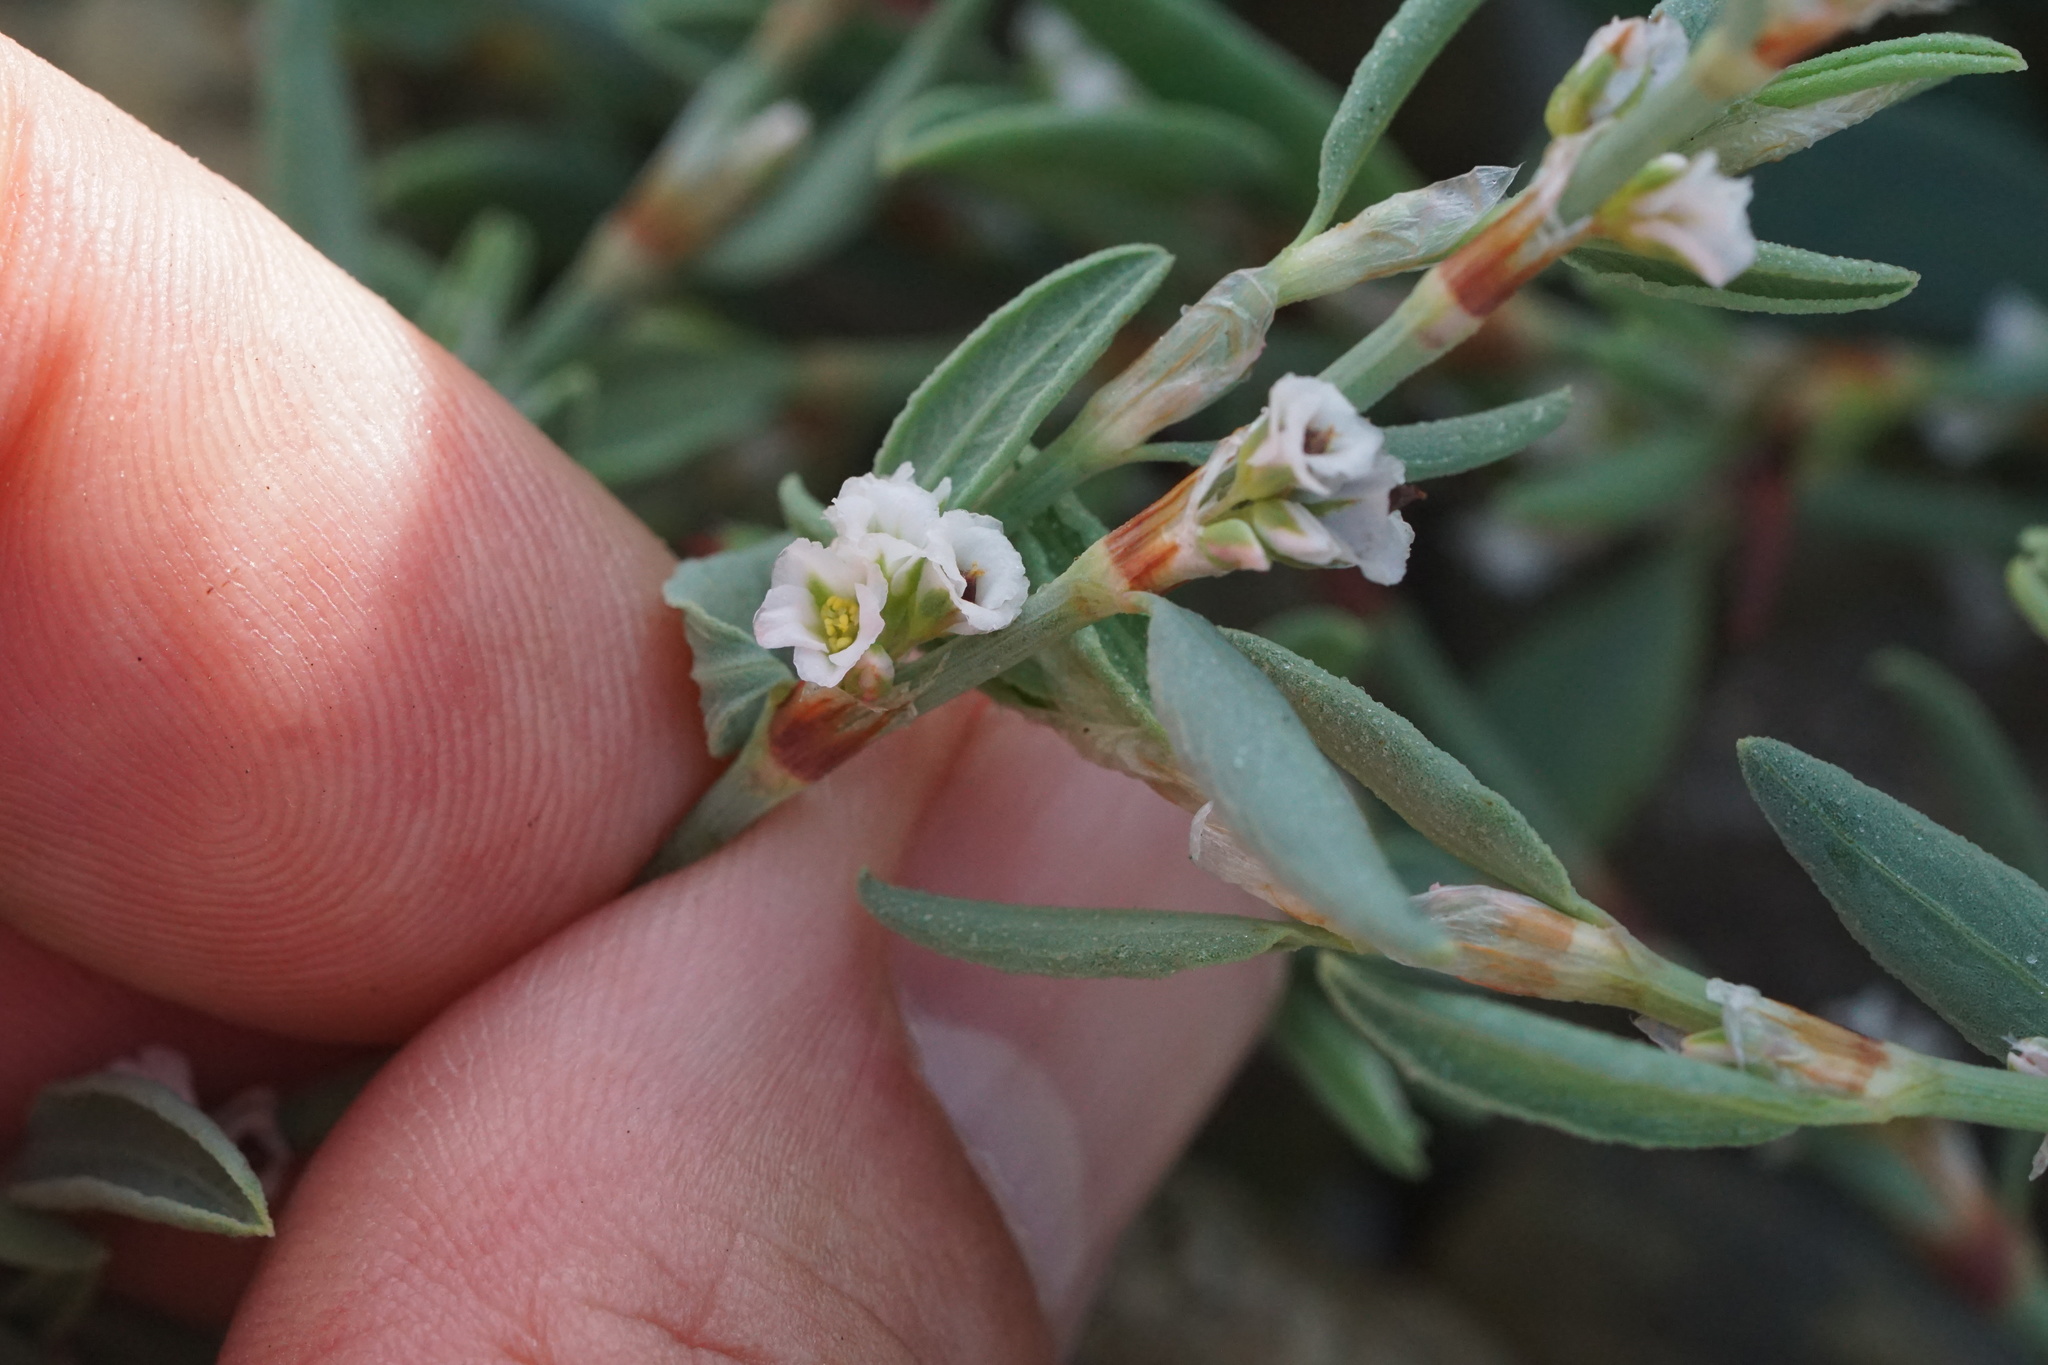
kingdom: Plantae
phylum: Tracheophyta
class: Magnoliopsida
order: Caryophyllales
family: Polygonaceae
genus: Polygonum
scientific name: Polygonum glaucum
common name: Seaside knotweed
